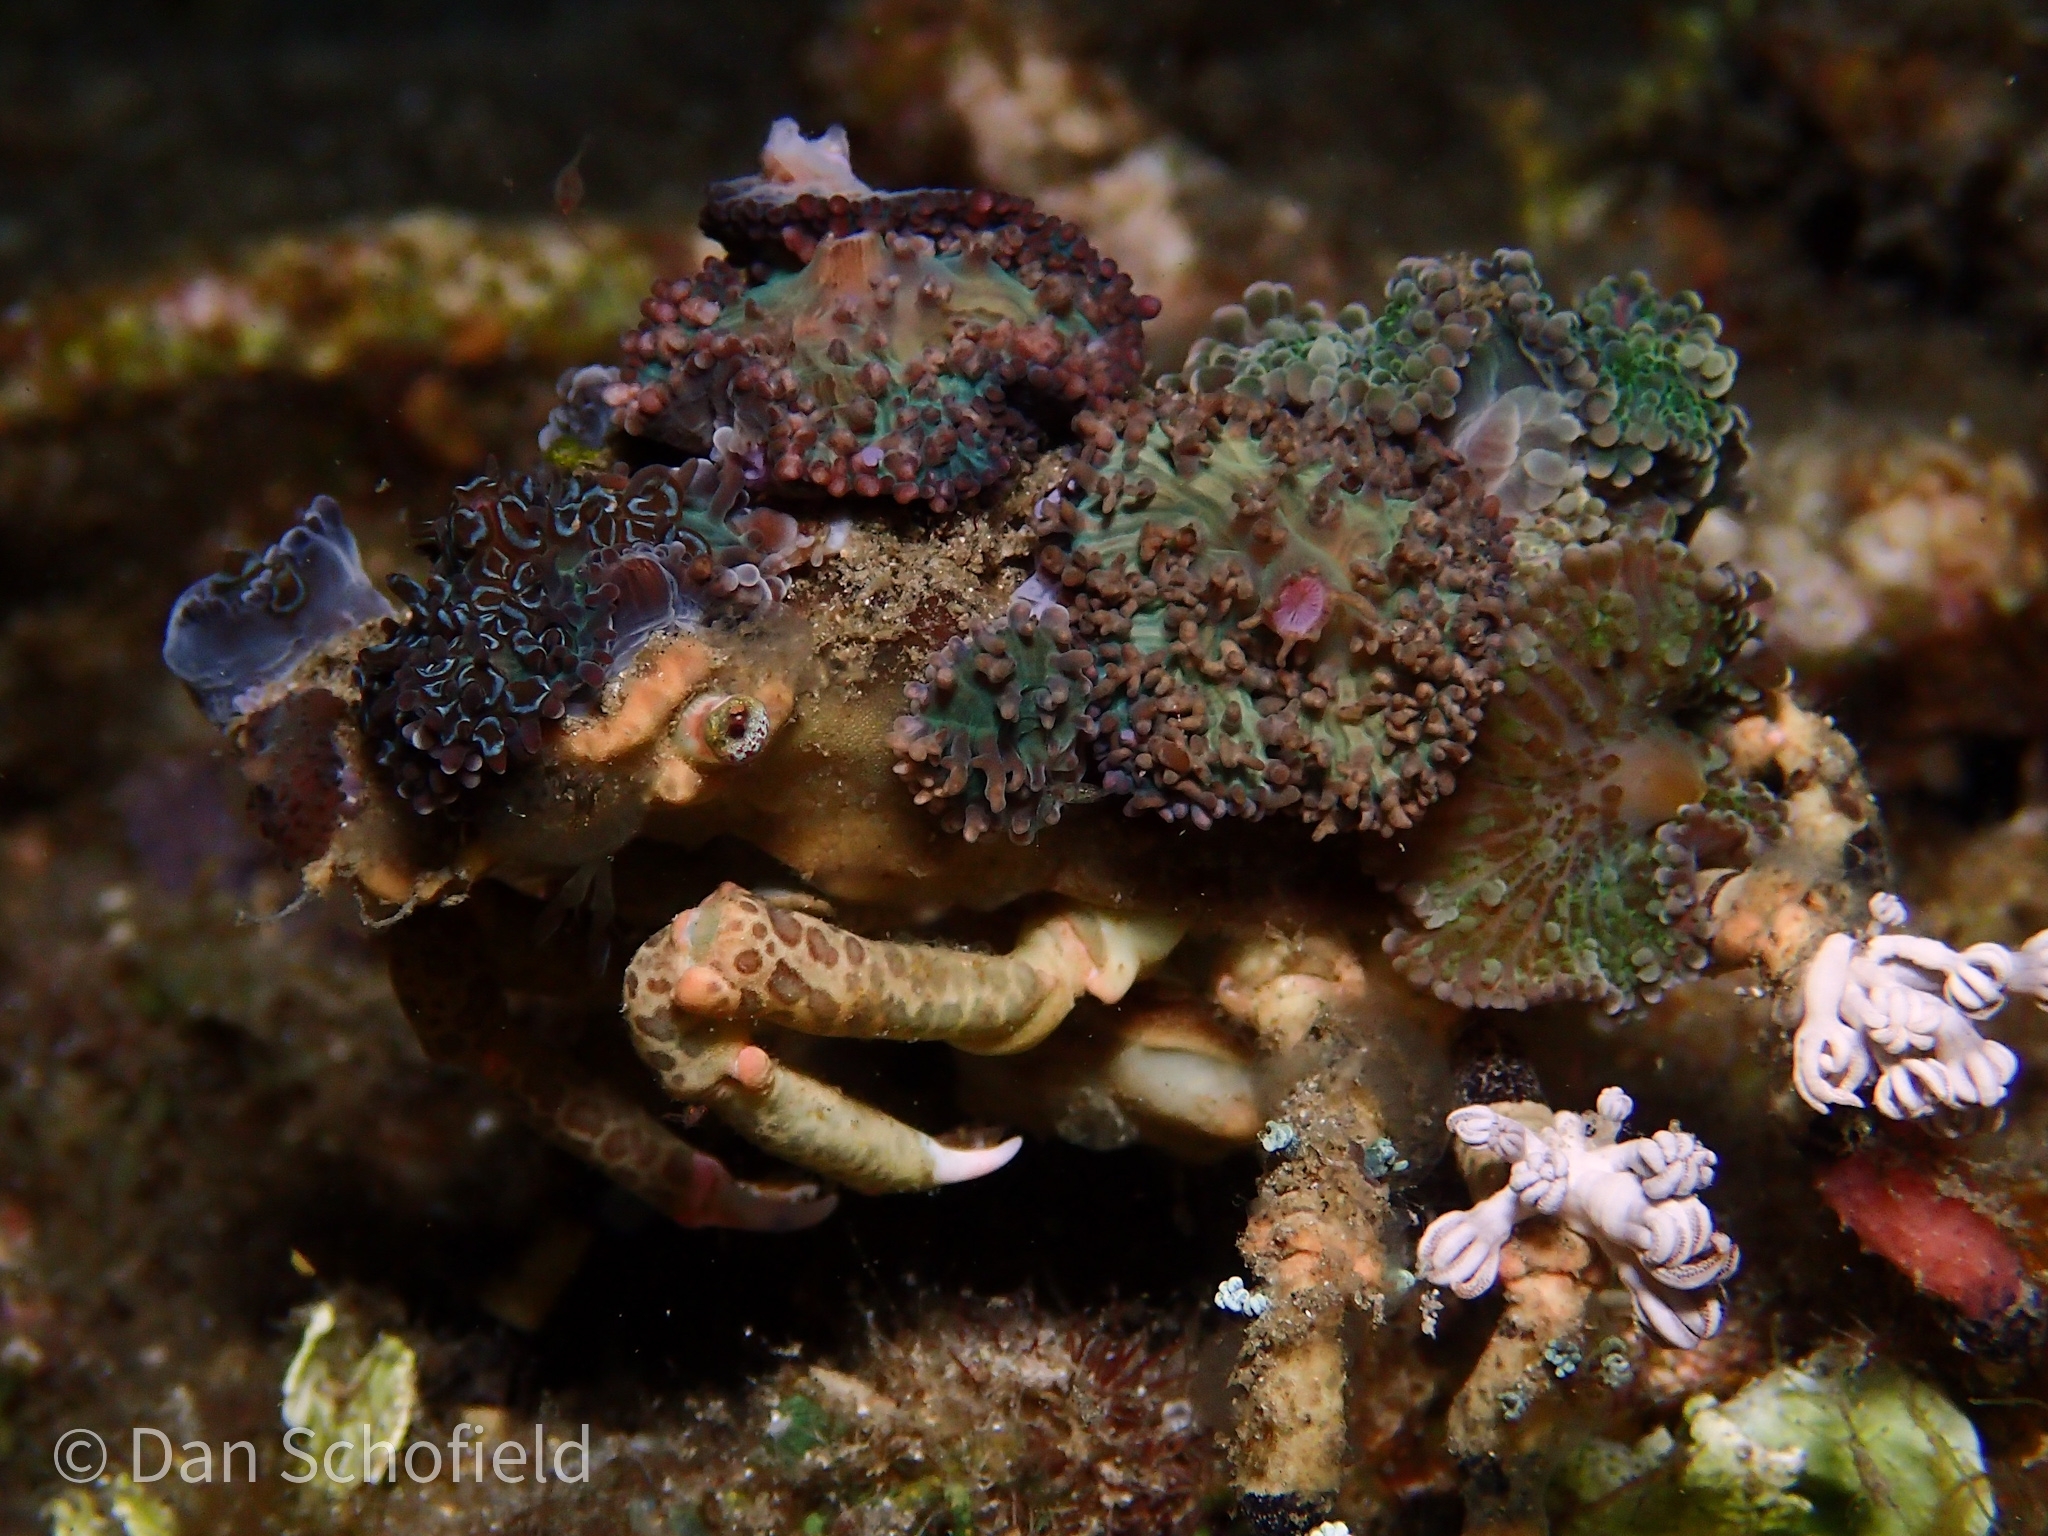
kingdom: Animalia
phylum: Arthropoda
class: Malacostraca
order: Decapoda
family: Epialtidae
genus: Cyclocoeloma
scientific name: Cyclocoeloma tuberculatum
